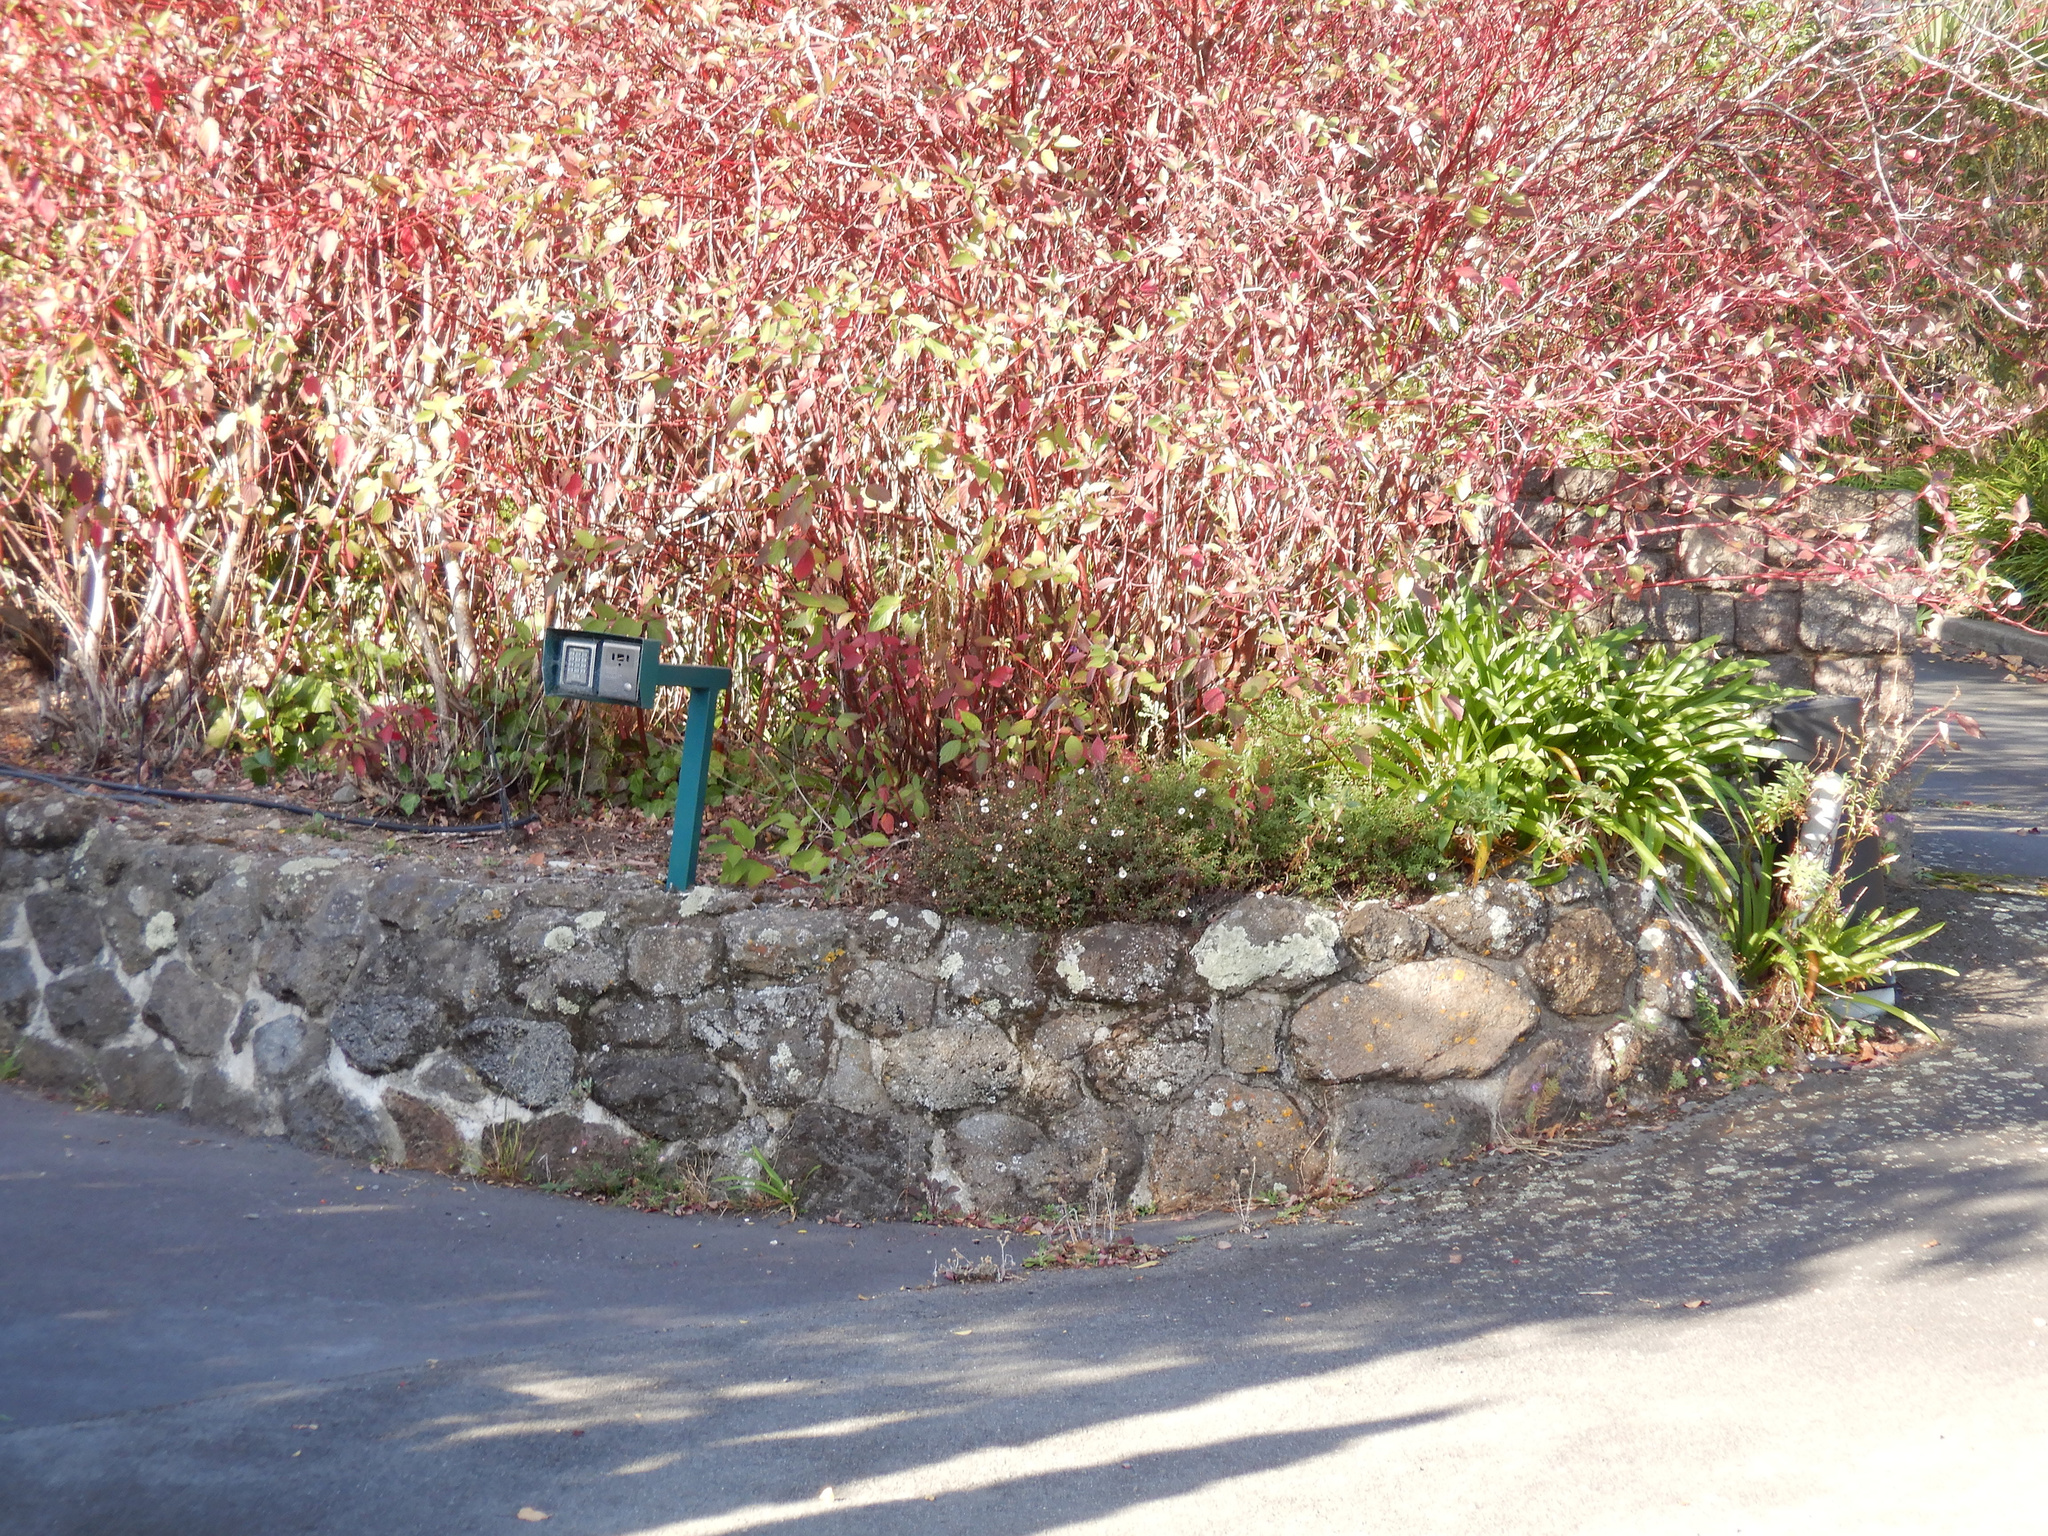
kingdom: Plantae
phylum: Tracheophyta
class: Magnoliopsida
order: Asterales
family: Asteraceae
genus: Erigeron
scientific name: Erigeron karvinskianus
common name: Mexican fleabane
